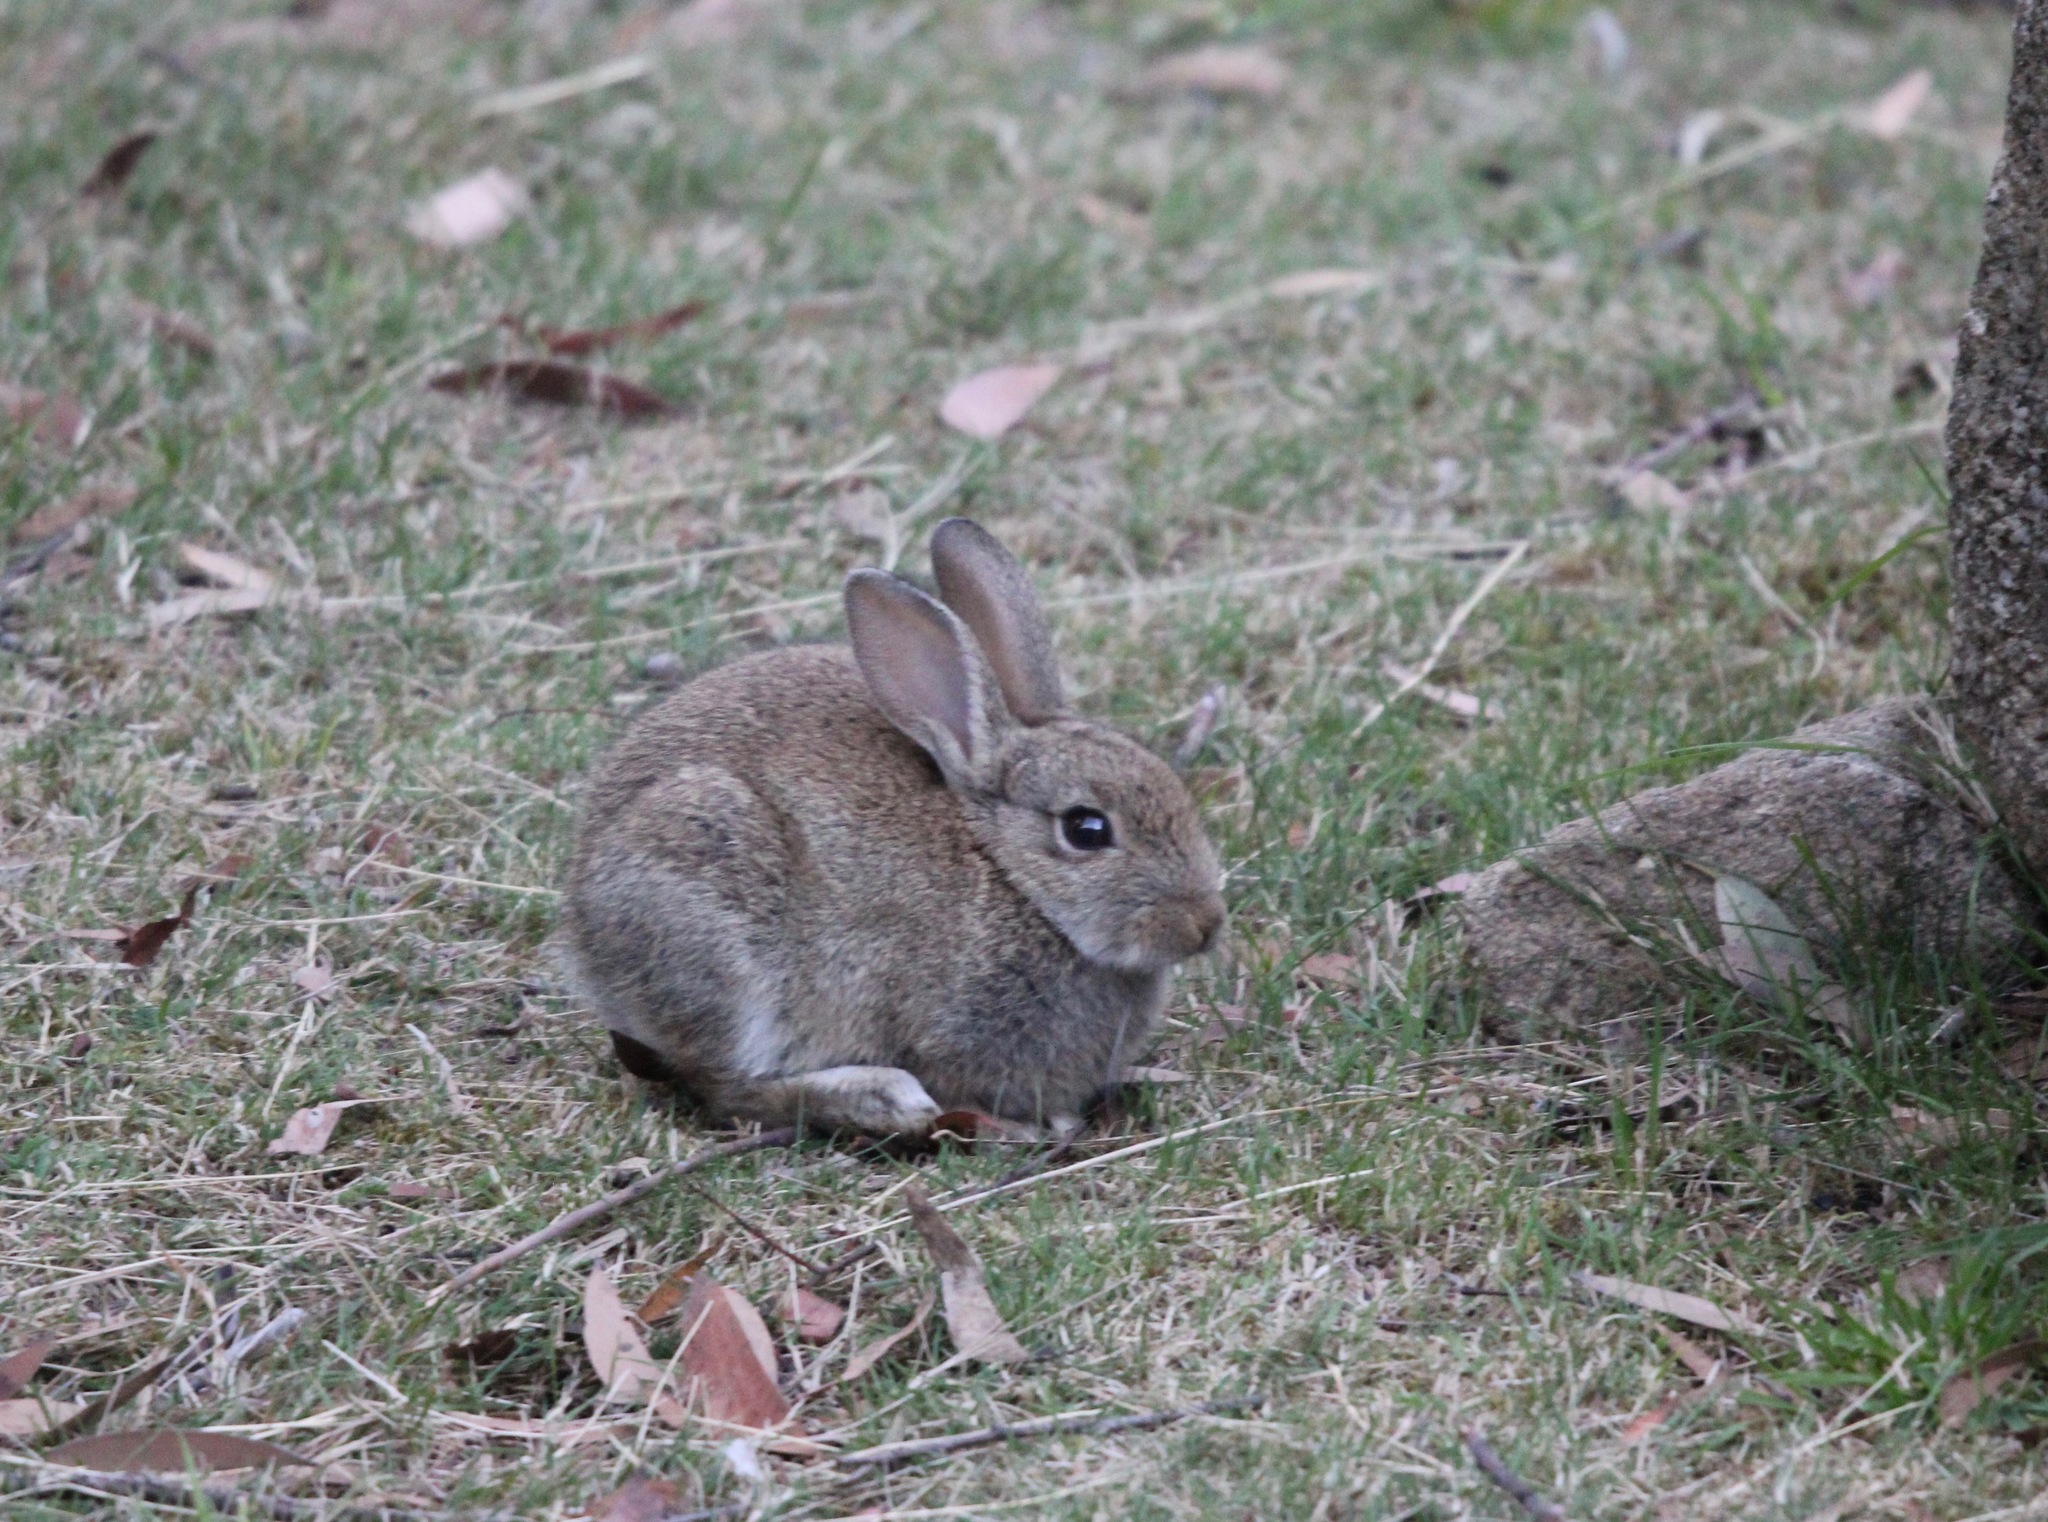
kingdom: Animalia
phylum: Chordata
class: Mammalia
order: Lagomorpha
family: Leporidae
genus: Oryctolagus
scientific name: Oryctolagus cuniculus
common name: European rabbit
